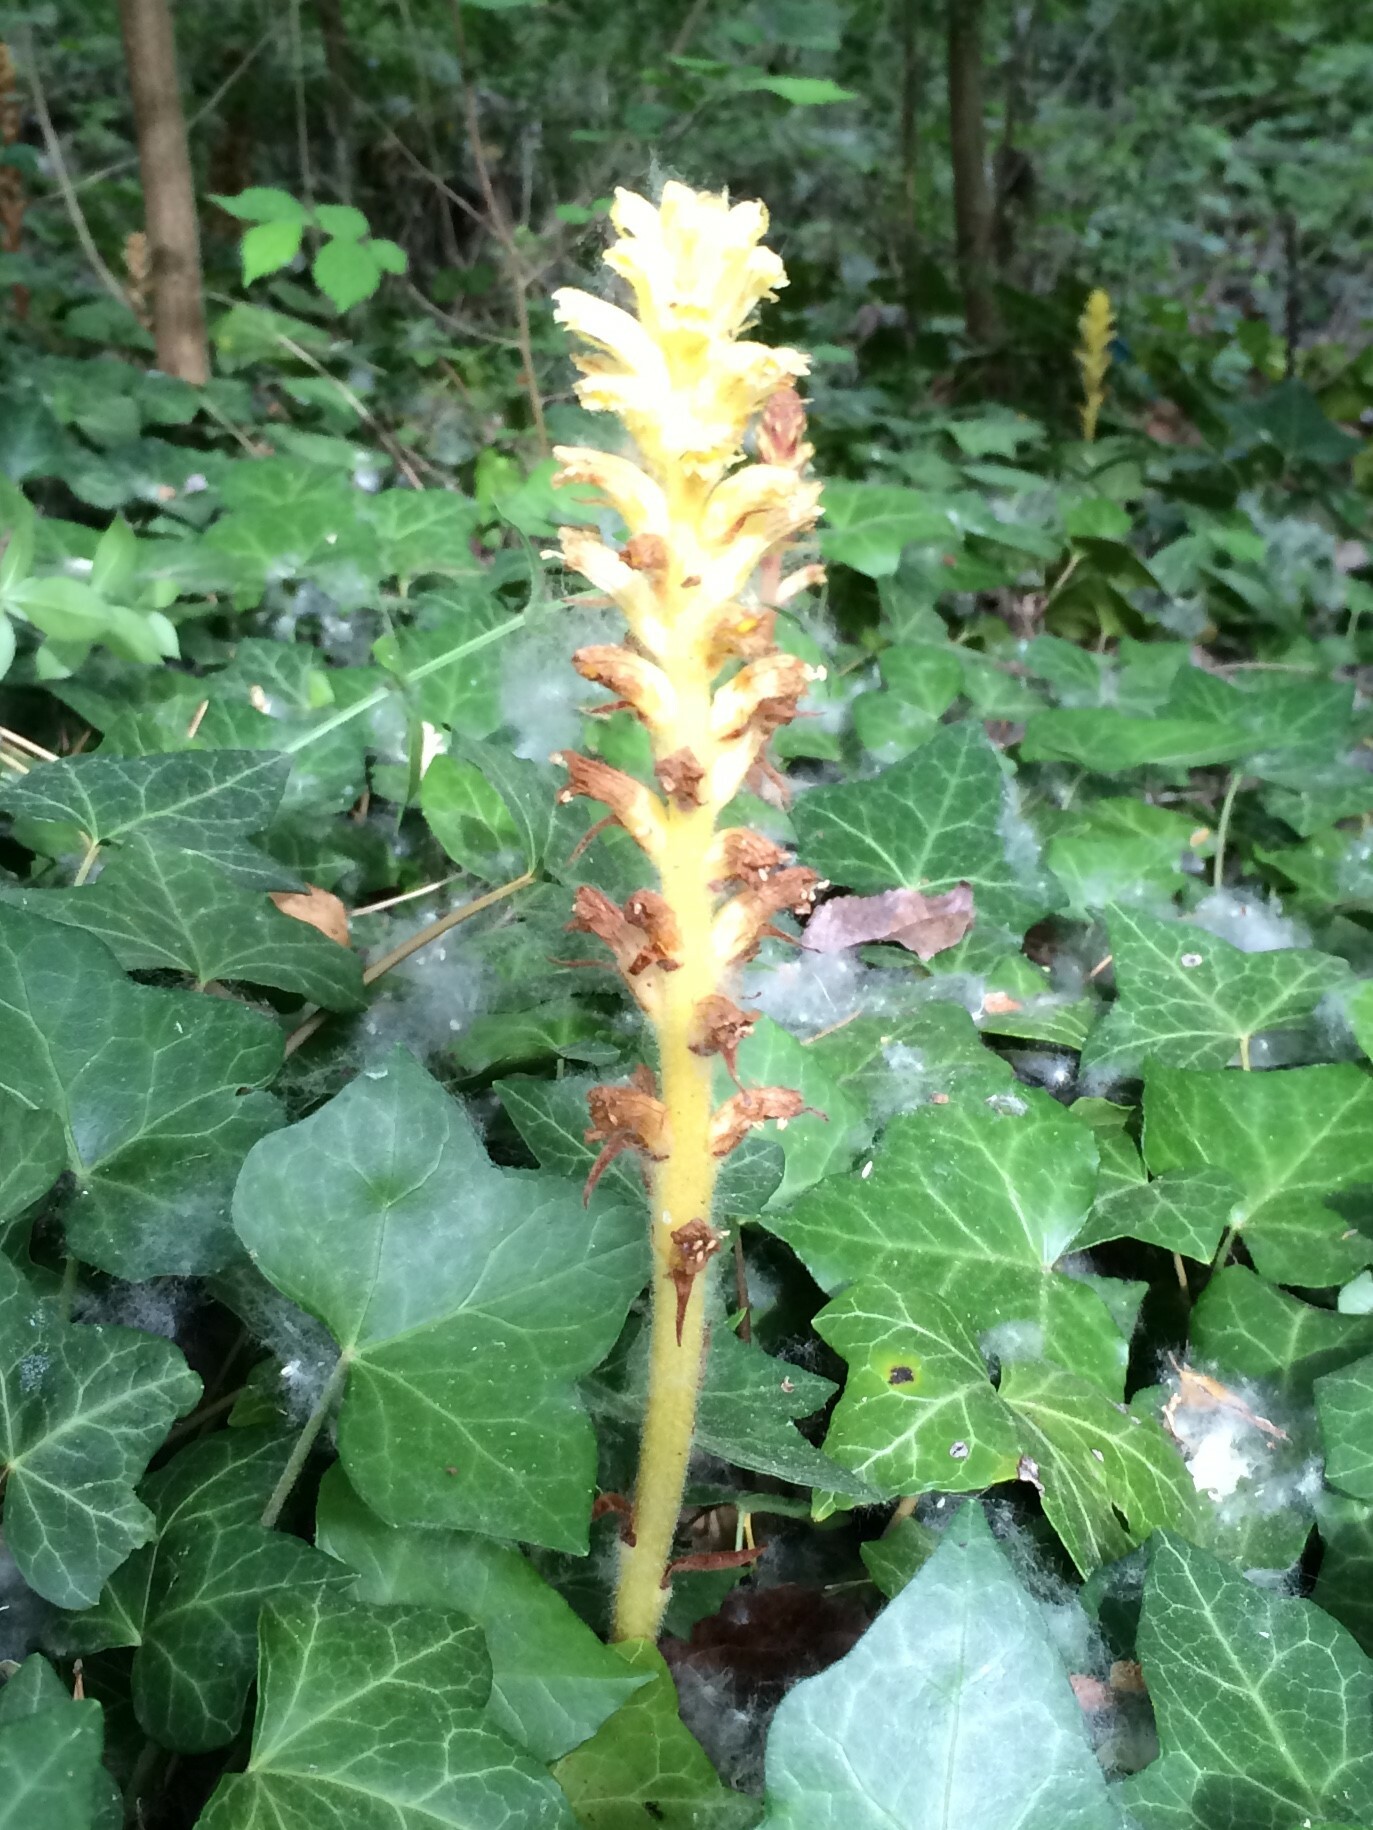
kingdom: Plantae
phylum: Tracheophyta
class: Magnoliopsida
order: Lamiales
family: Orobanchaceae
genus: Orobanche
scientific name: Orobanche hederae
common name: Ivy broomrape
